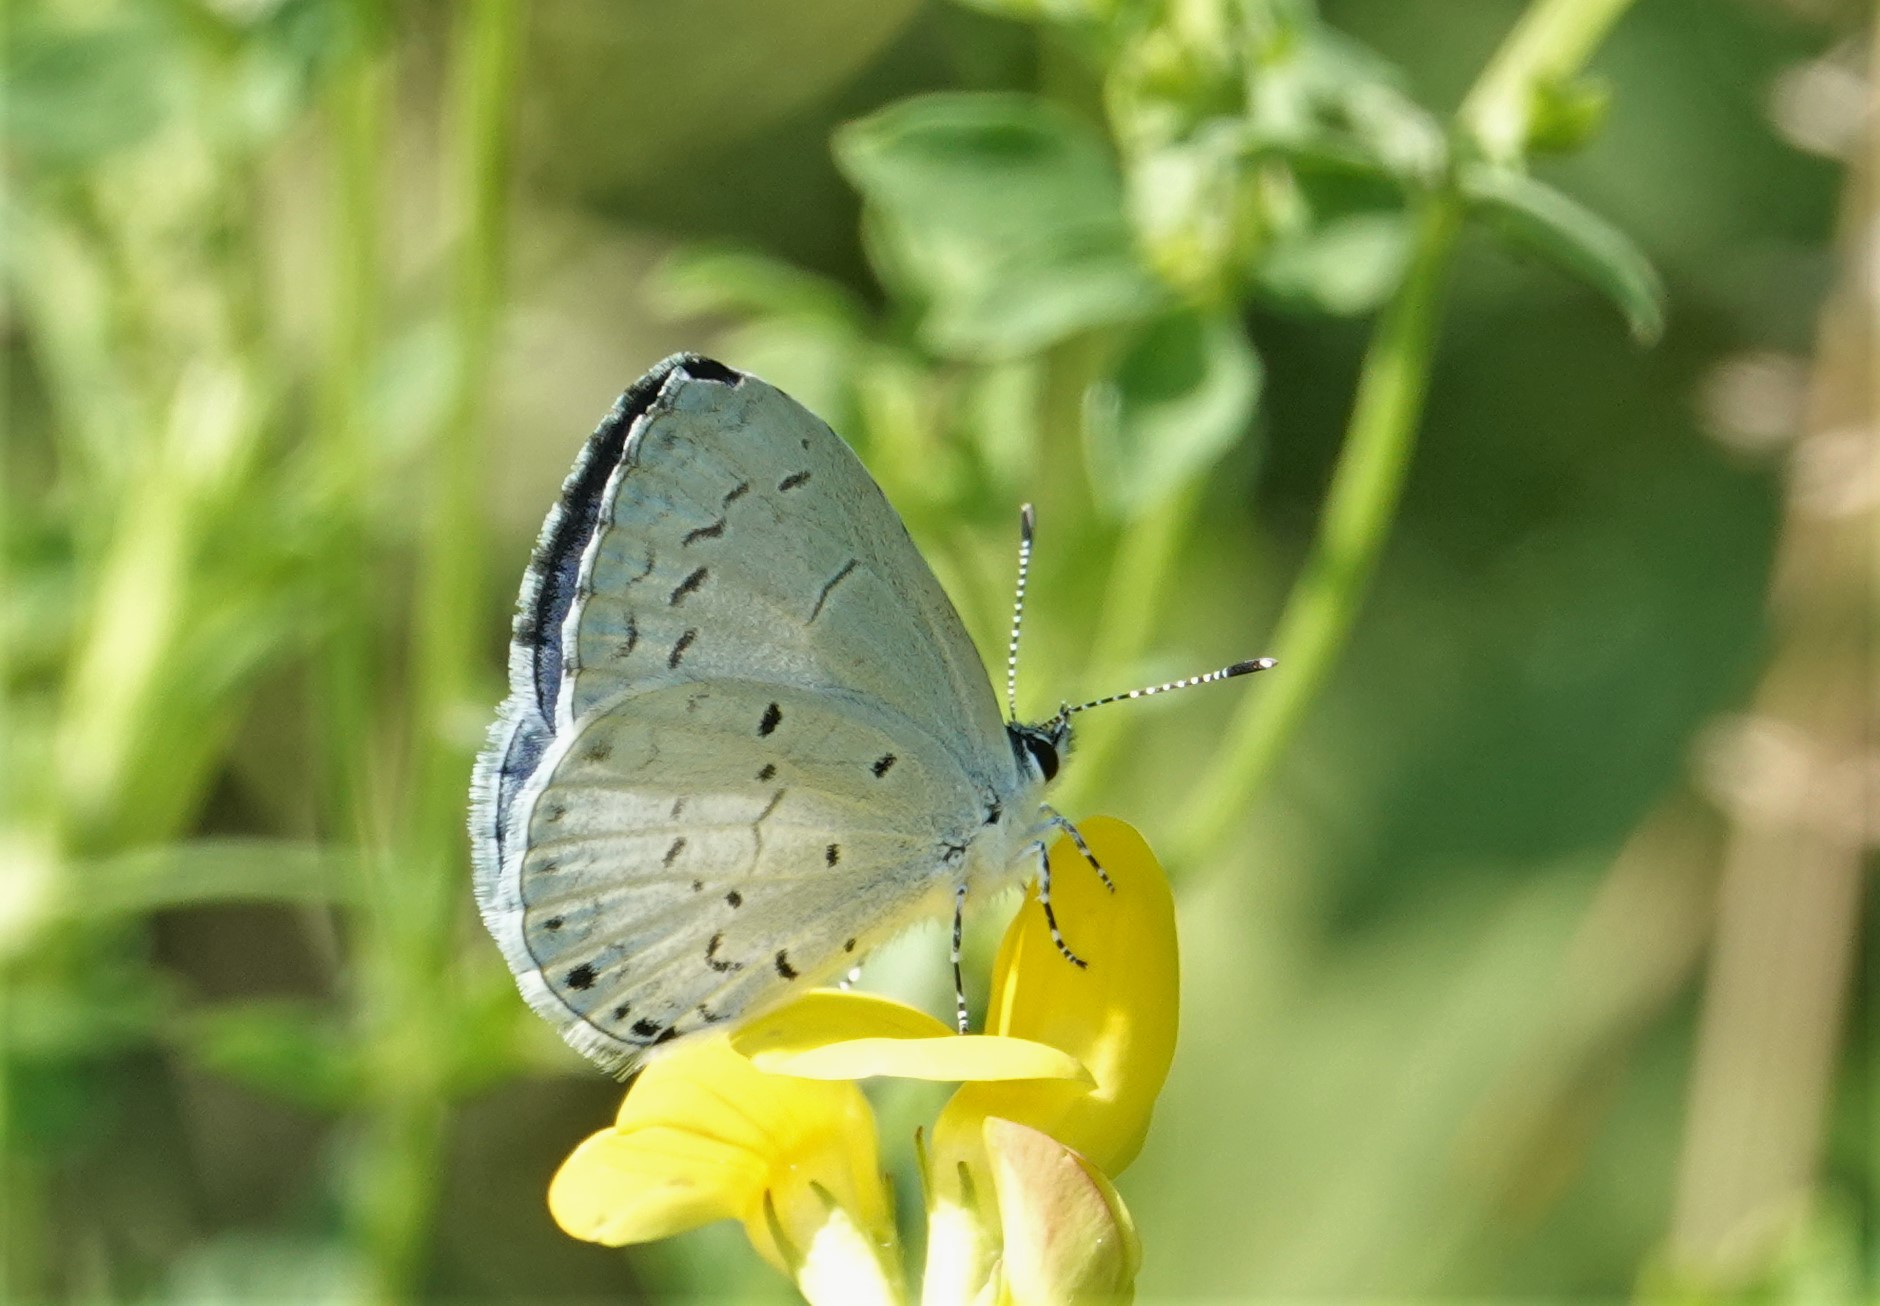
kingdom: Animalia
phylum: Arthropoda
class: Insecta
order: Lepidoptera
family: Lycaenidae
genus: Cyaniris
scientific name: Cyaniris neglecta
